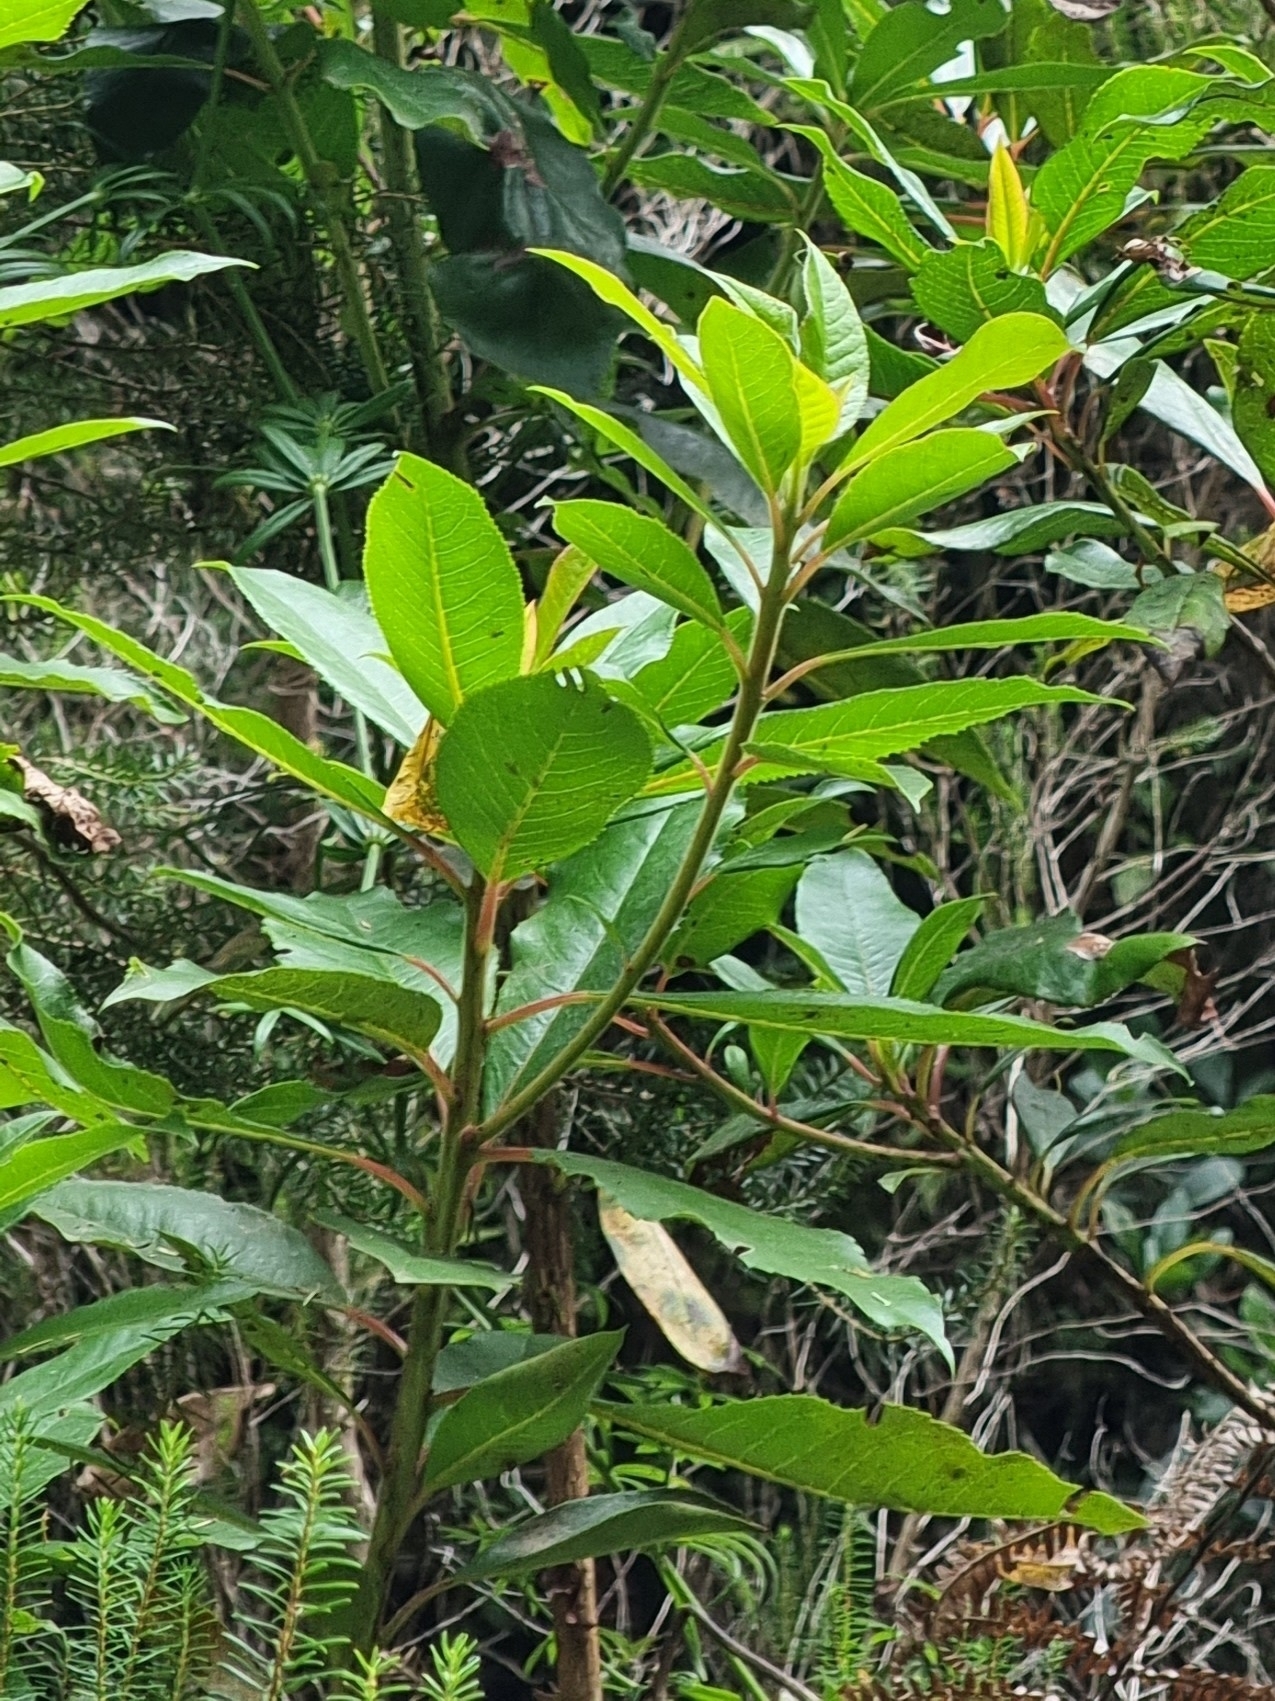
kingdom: Plantae
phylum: Tracheophyta
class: Magnoliopsida
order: Ericales
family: Clethraceae
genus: Clethra
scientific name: Clethra arborea
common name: Lily-of-the-valley-tree
